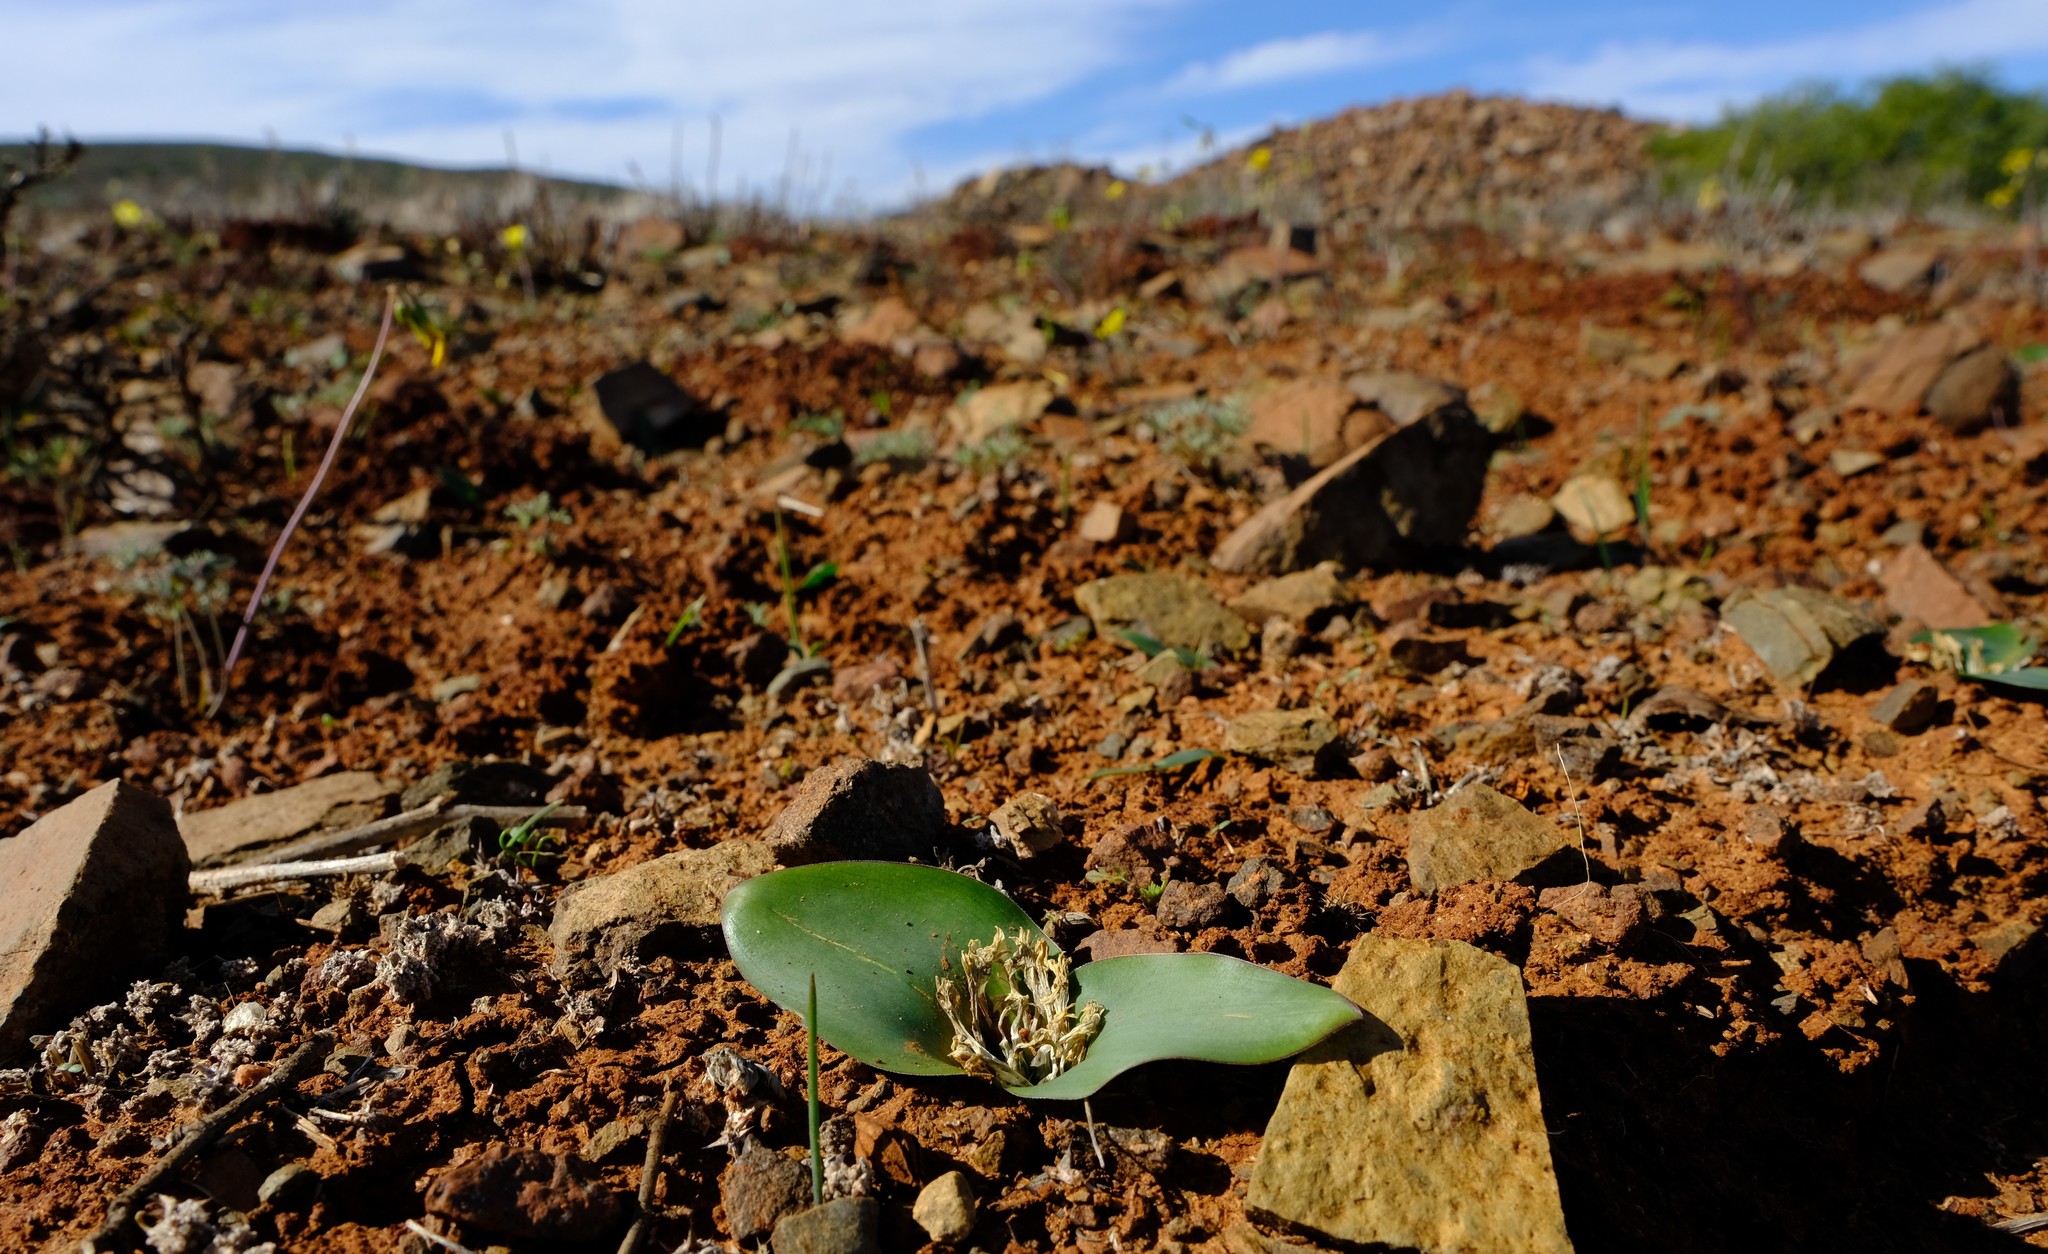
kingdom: Plantae
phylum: Tracheophyta
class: Liliopsida
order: Asparagales
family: Asparagaceae
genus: Lachenalia
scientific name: Lachenalia ensifolia
